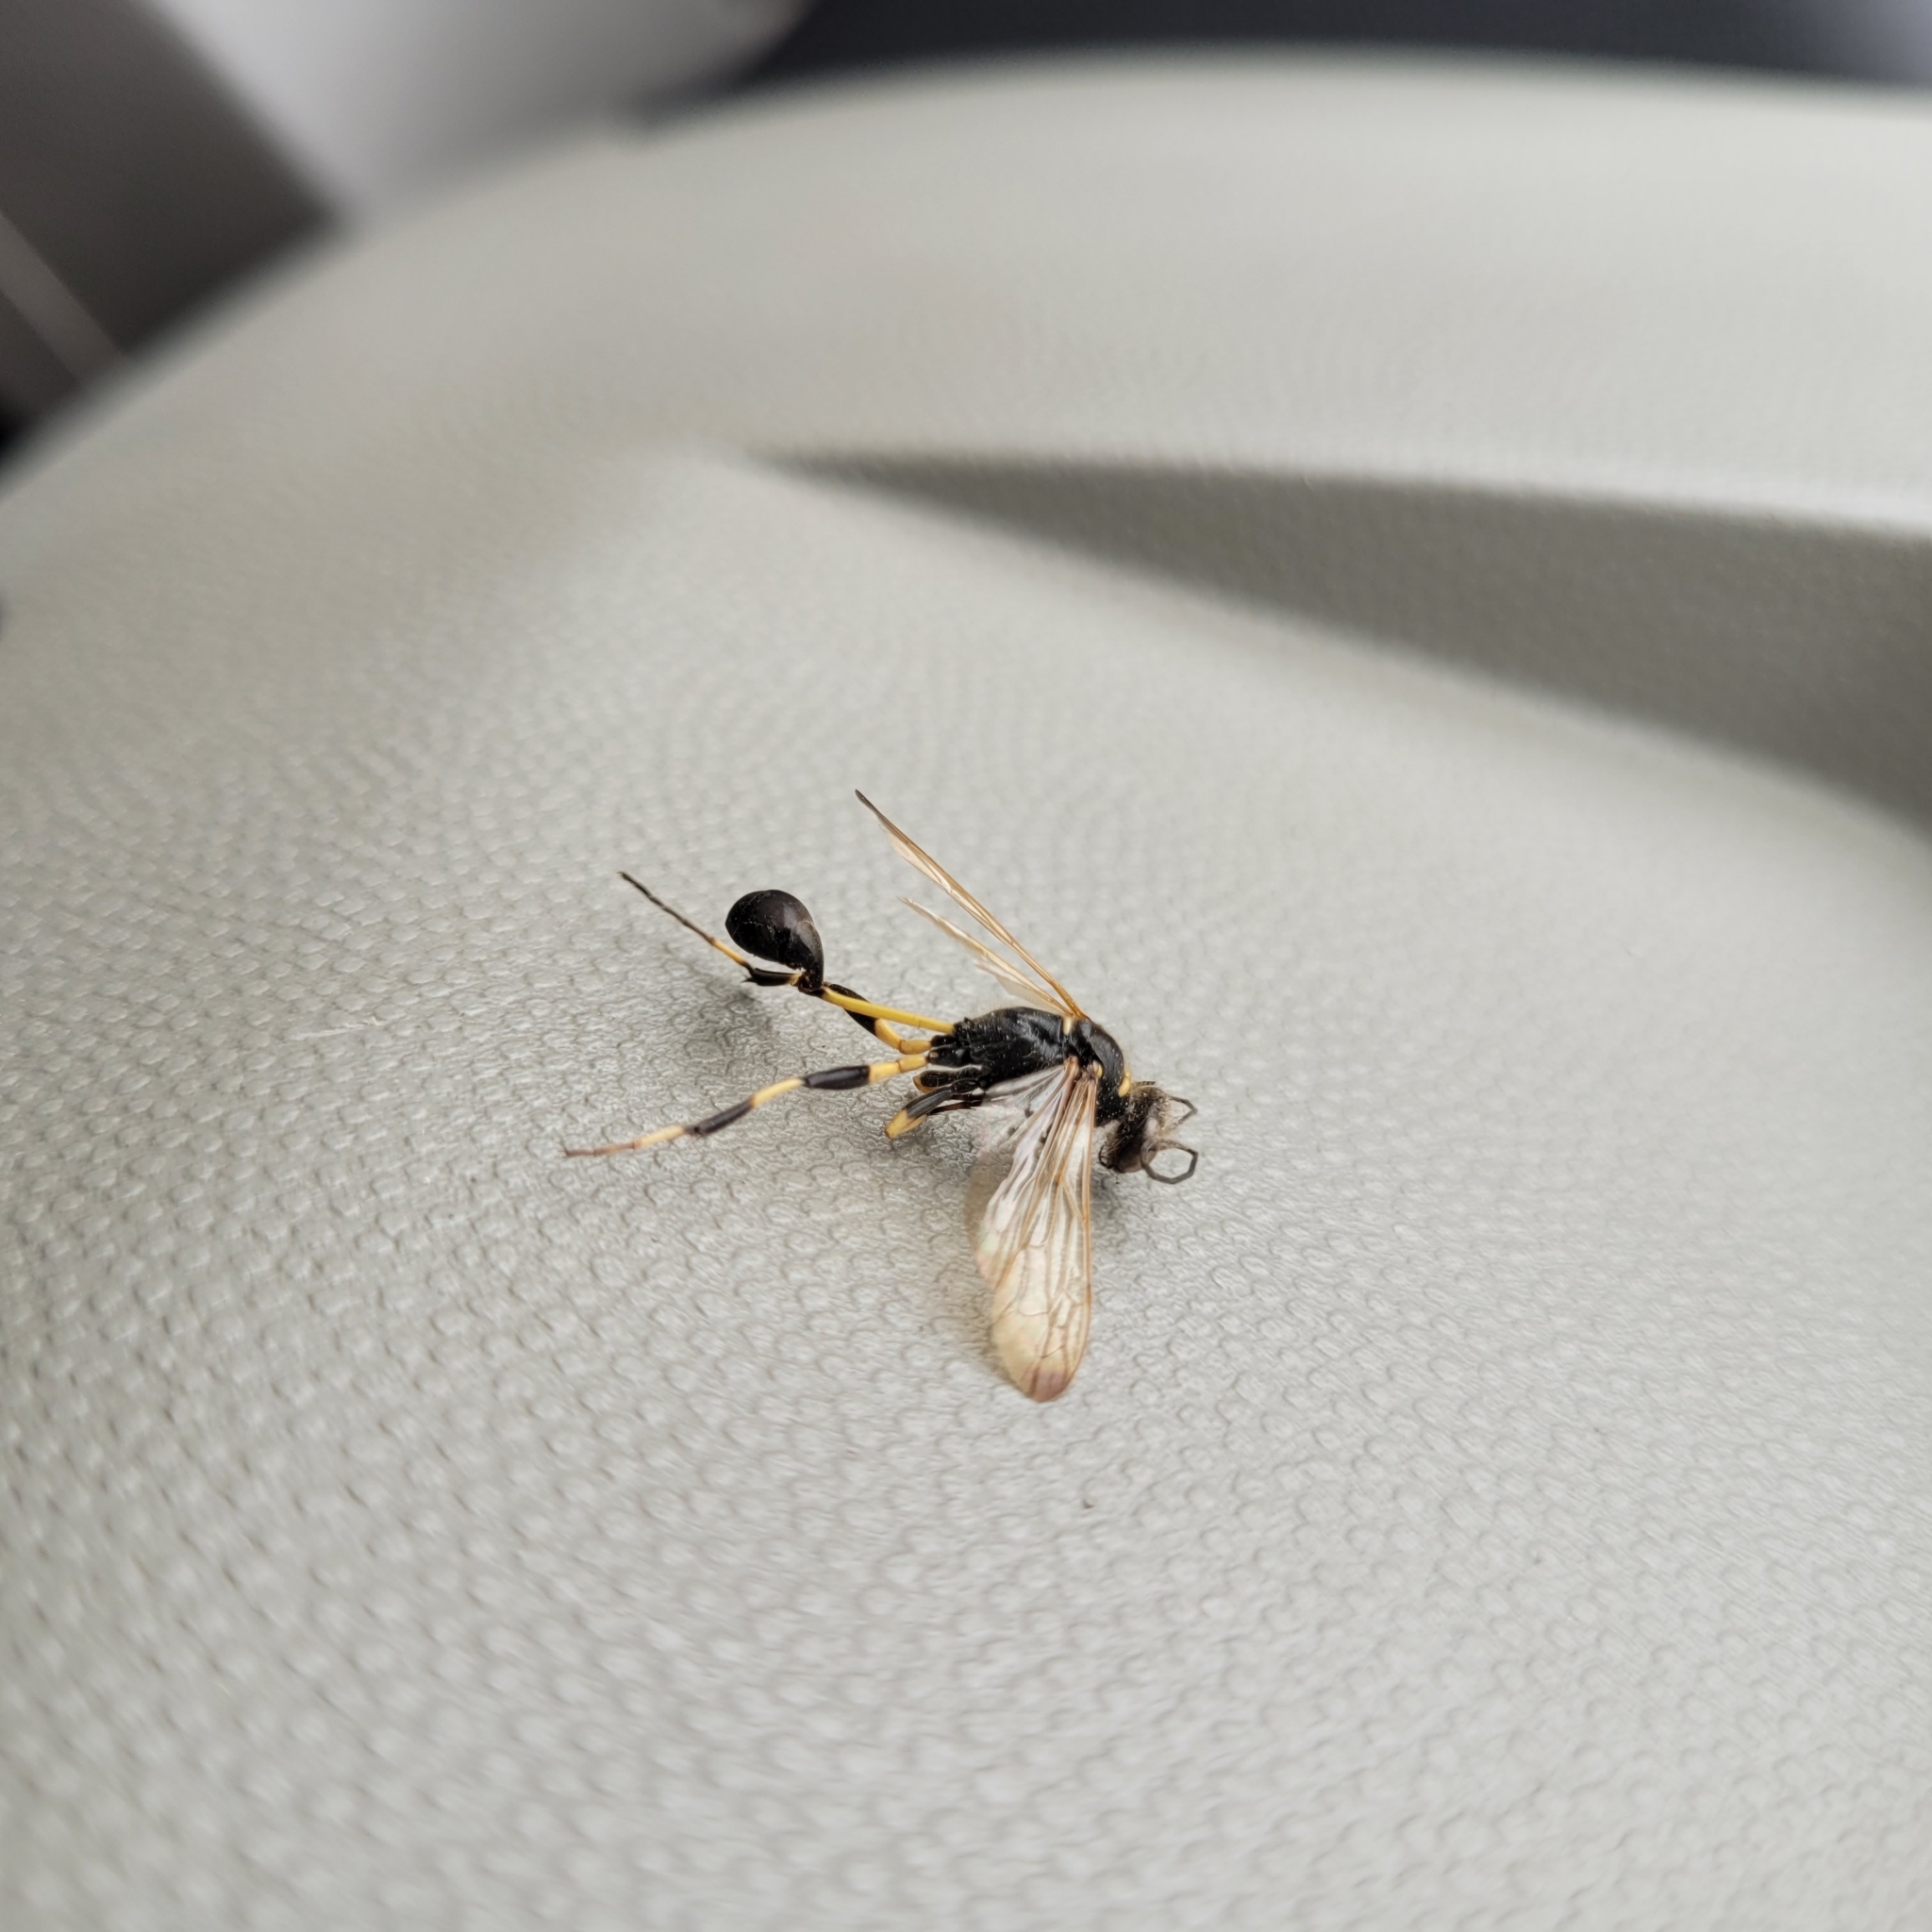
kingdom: Animalia
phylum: Arthropoda
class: Insecta
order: Hymenoptera
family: Sphecidae
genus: Sceliphron
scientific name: Sceliphron madraspatanum
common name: Mud dauber
